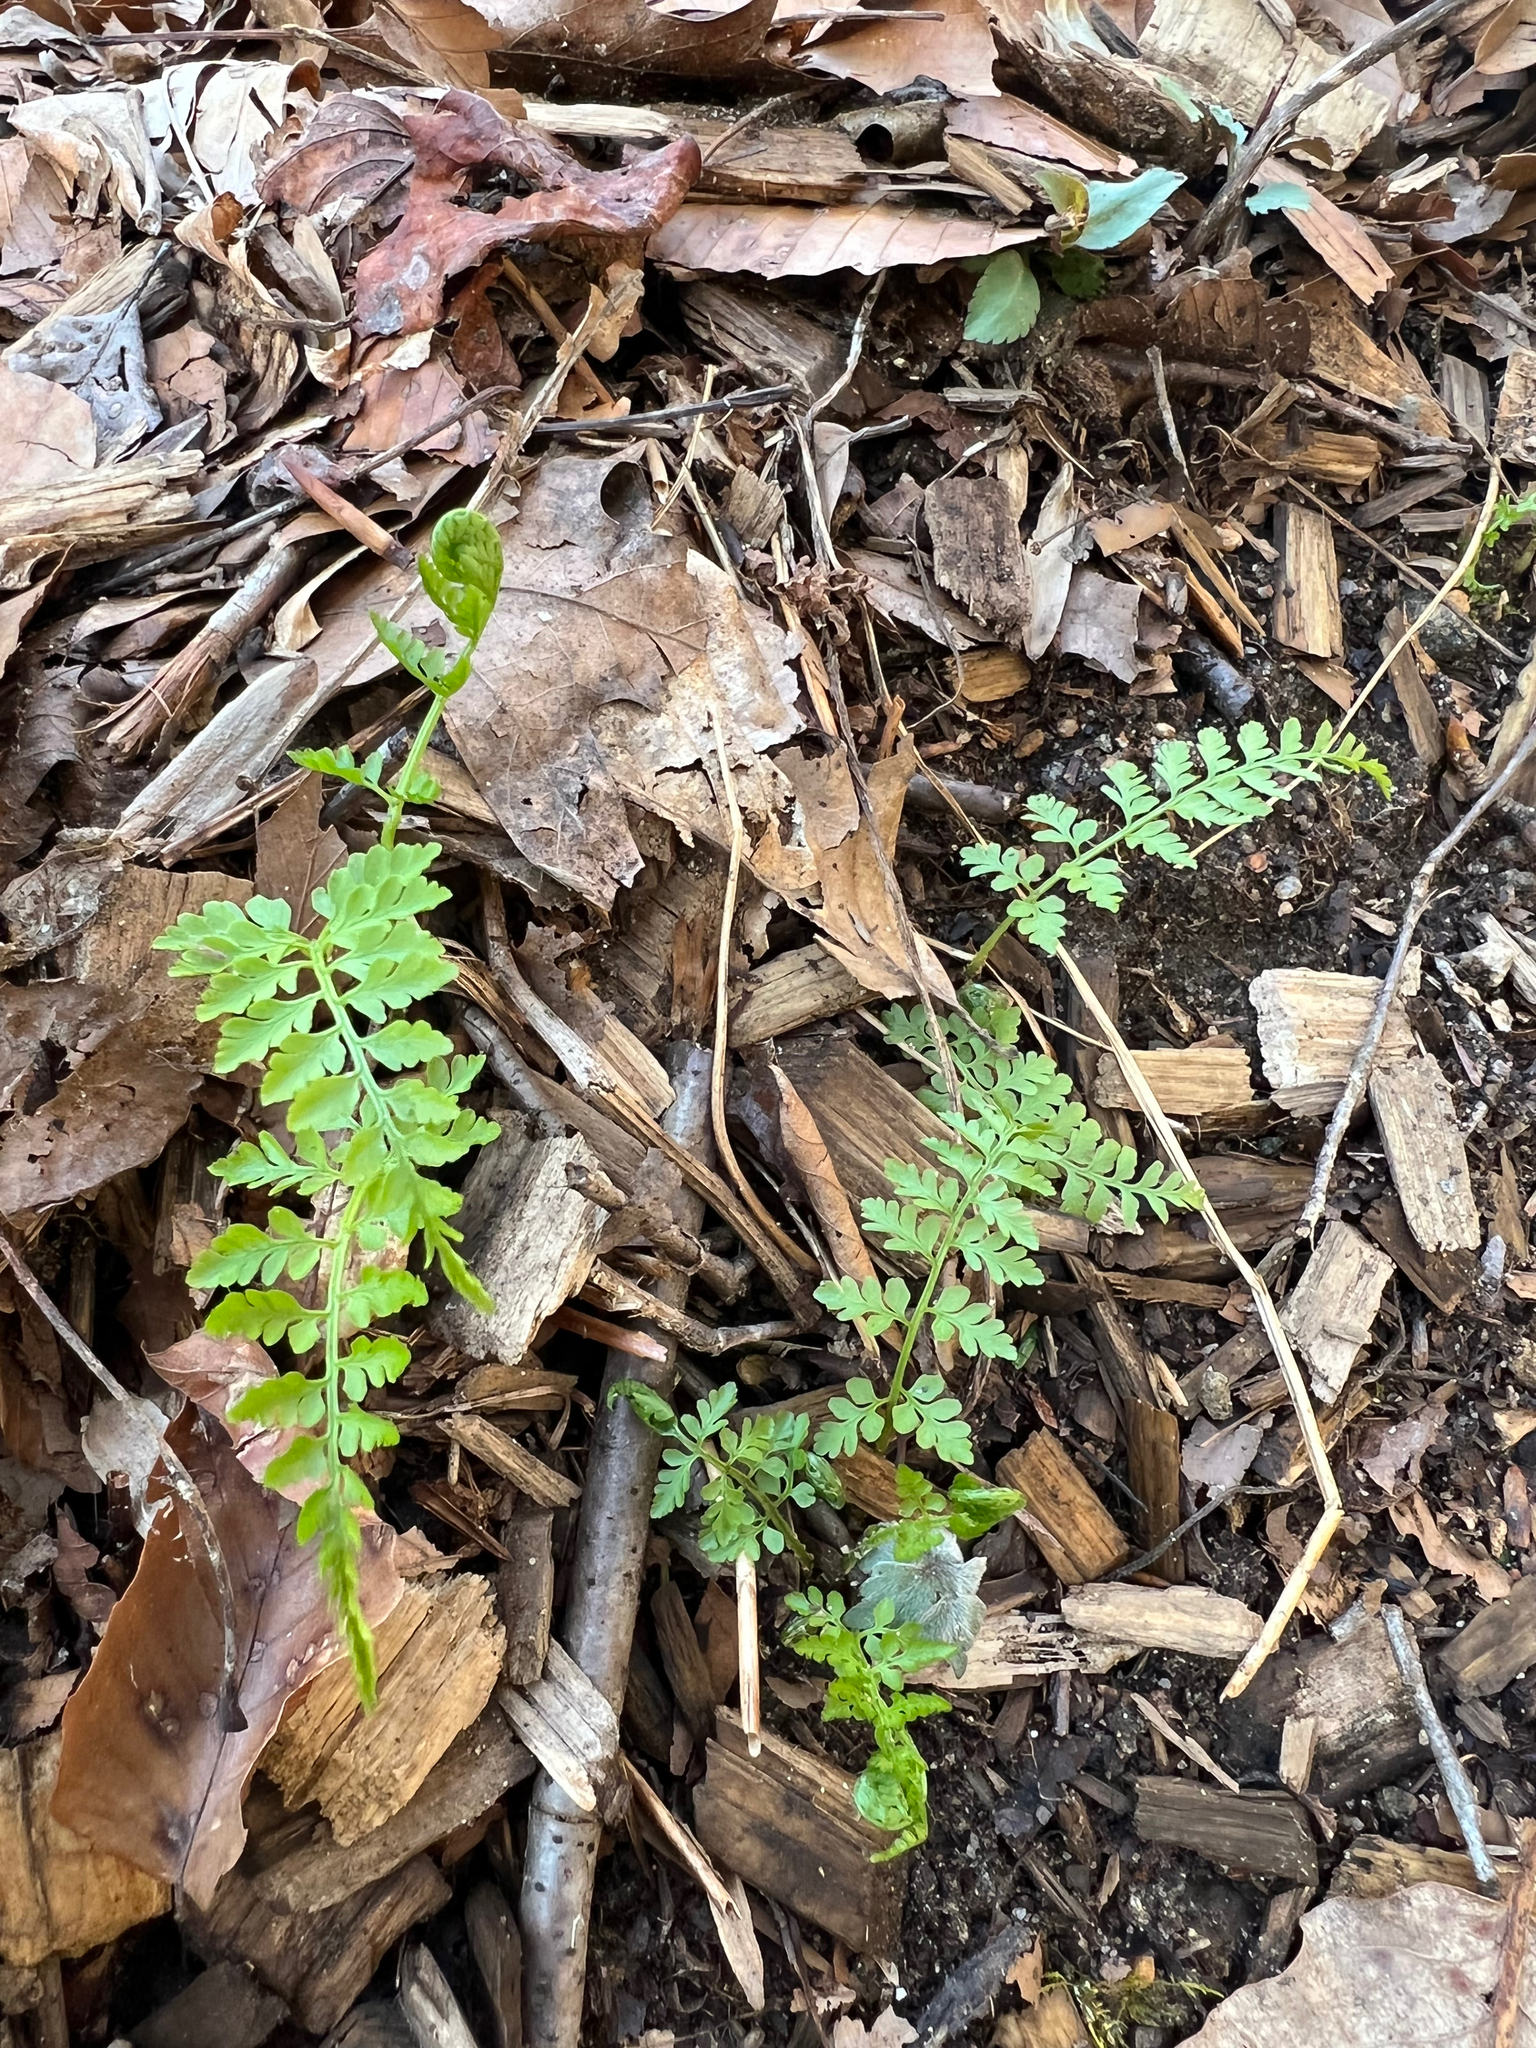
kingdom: Plantae
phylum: Tracheophyta
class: Polypodiopsida
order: Polypodiales
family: Cystopteridaceae
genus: Cystopteris
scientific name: Cystopteris protrusa
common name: Lowland brittle fern
